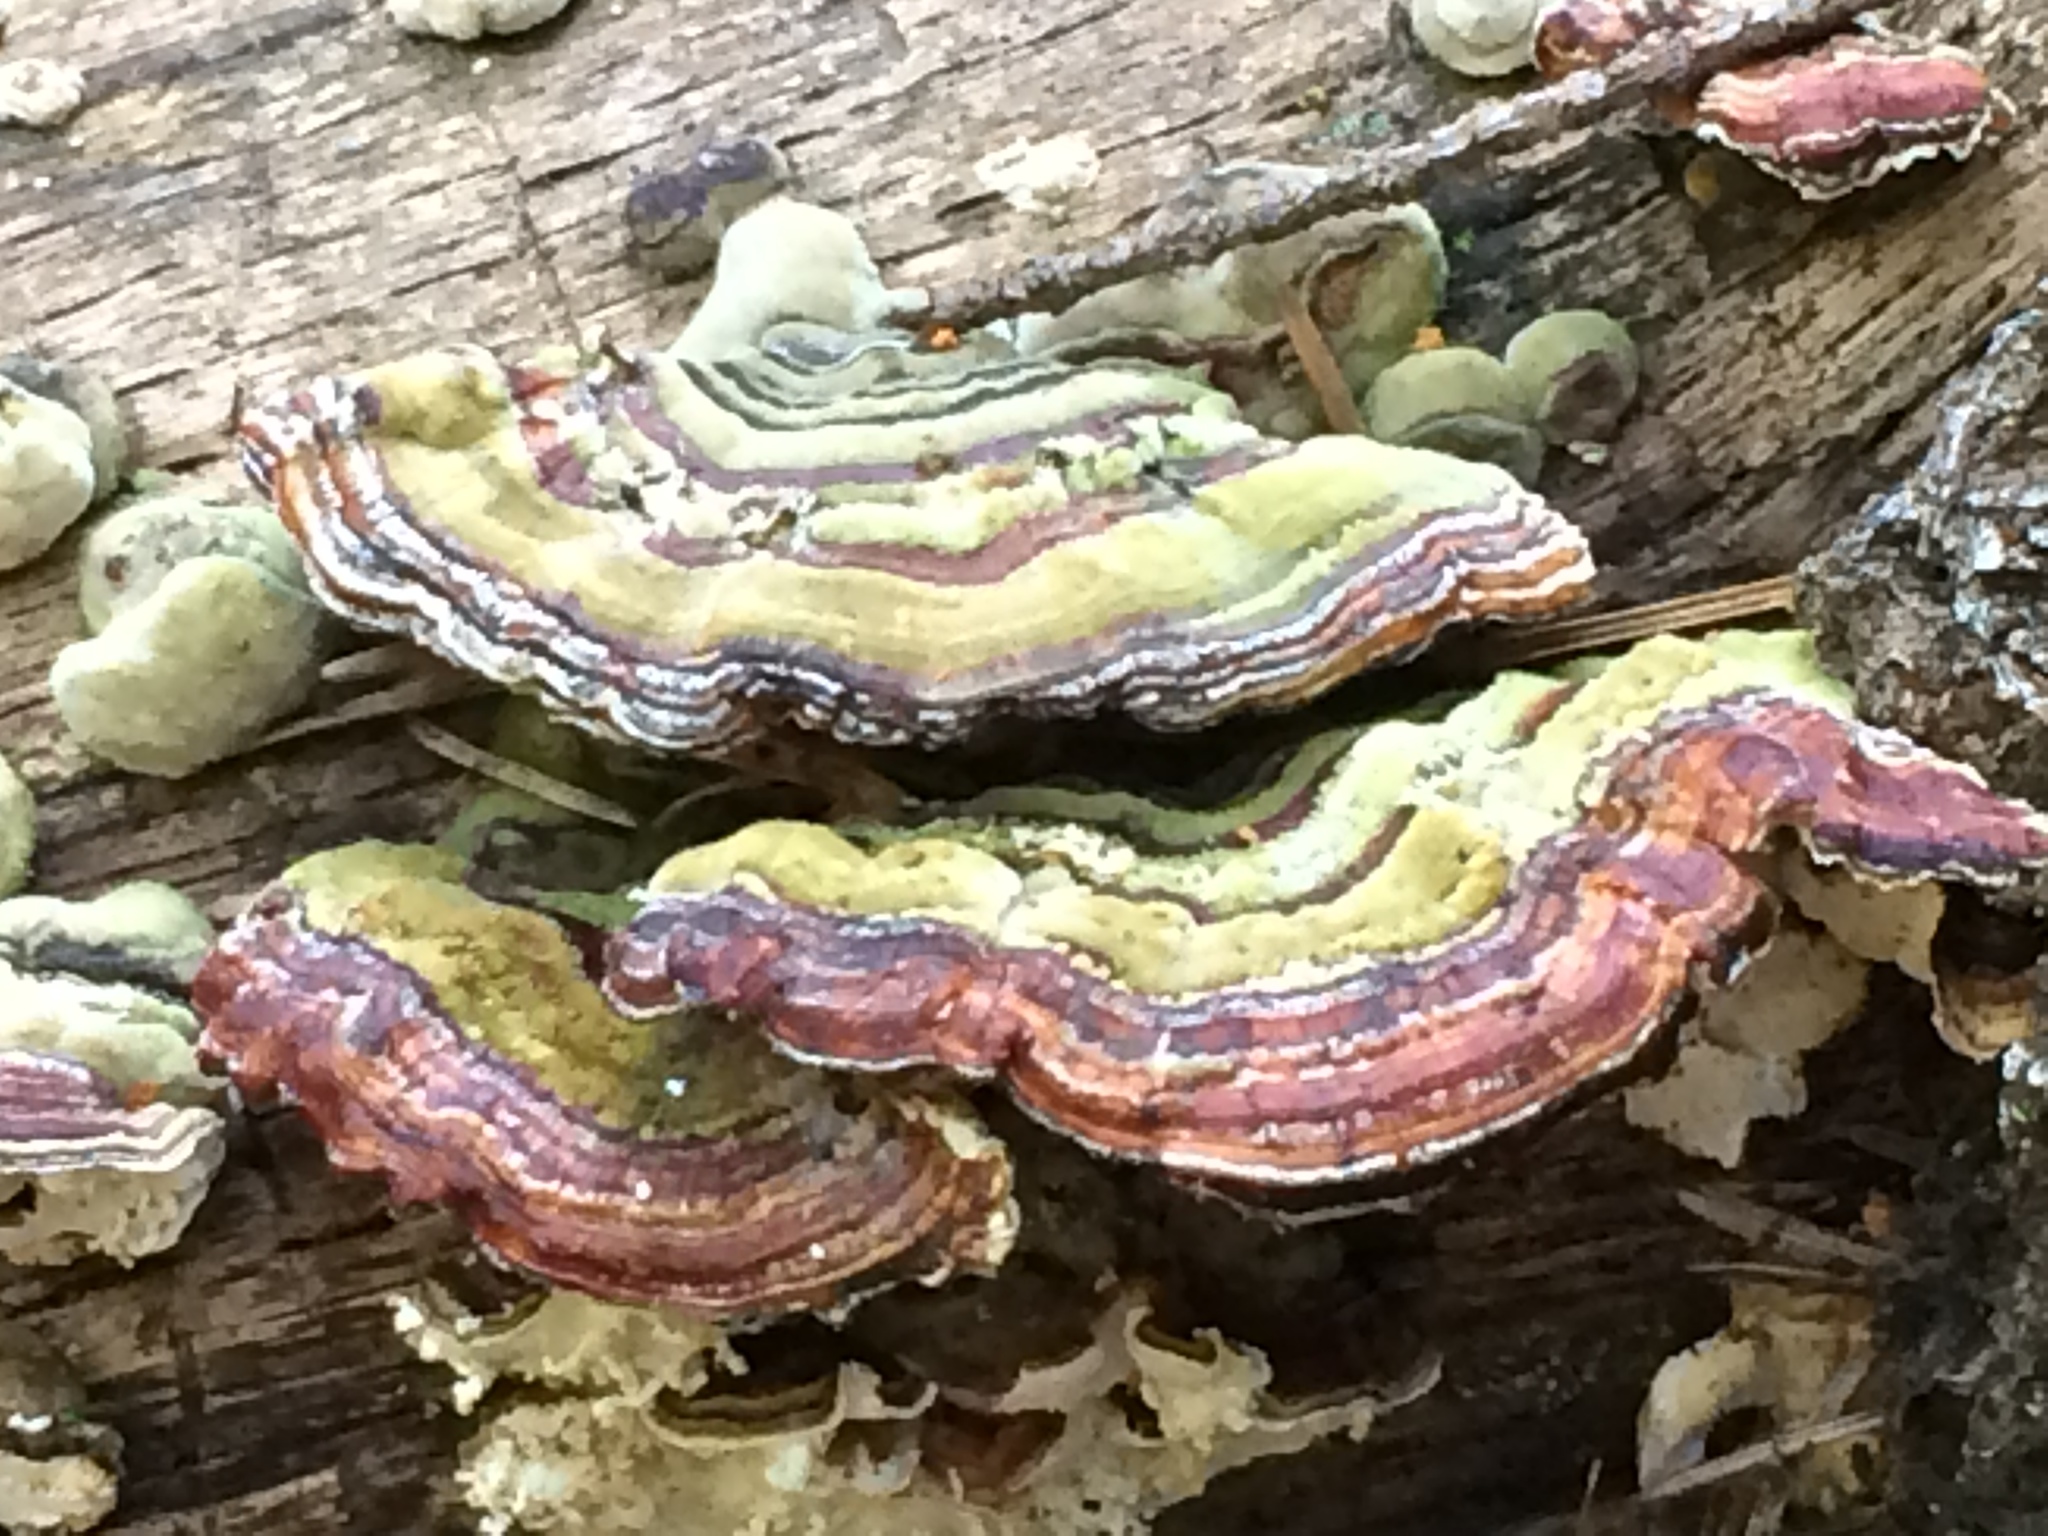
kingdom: Fungi
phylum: Basidiomycota
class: Agaricomycetes
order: Polyporales
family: Polyporaceae
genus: Trametes
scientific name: Trametes versicolor
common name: Turkeytail
